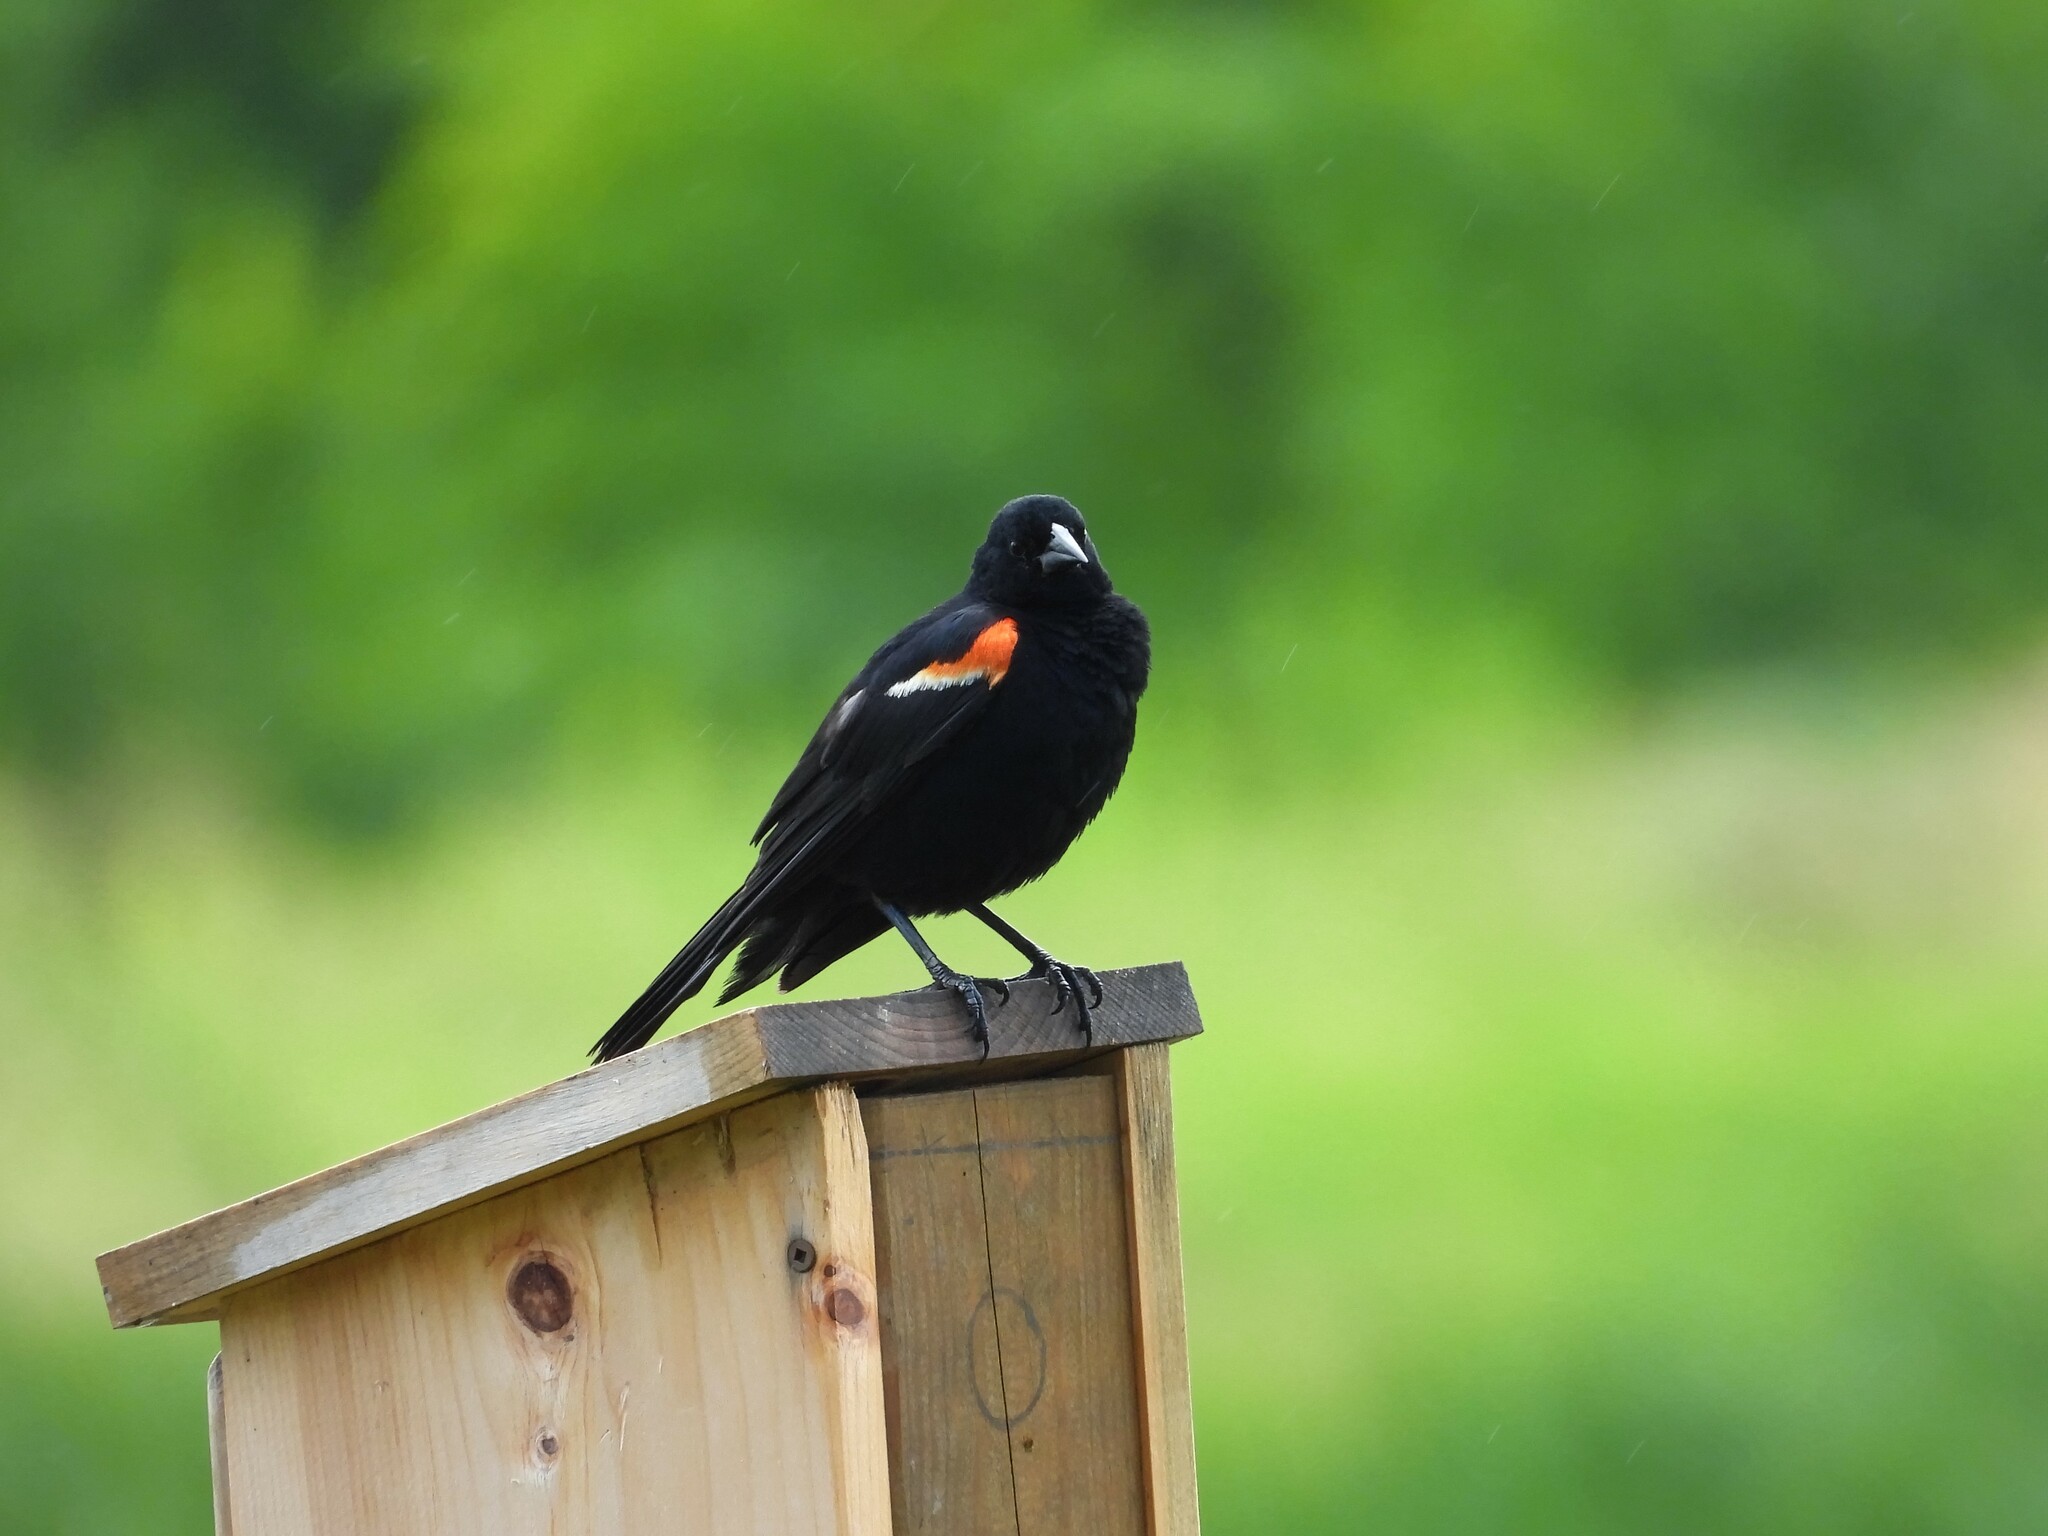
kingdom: Animalia
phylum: Chordata
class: Aves
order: Passeriformes
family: Icteridae
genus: Agelaius
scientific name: Agelaius phoeniceus
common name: Red-winged blackbird
